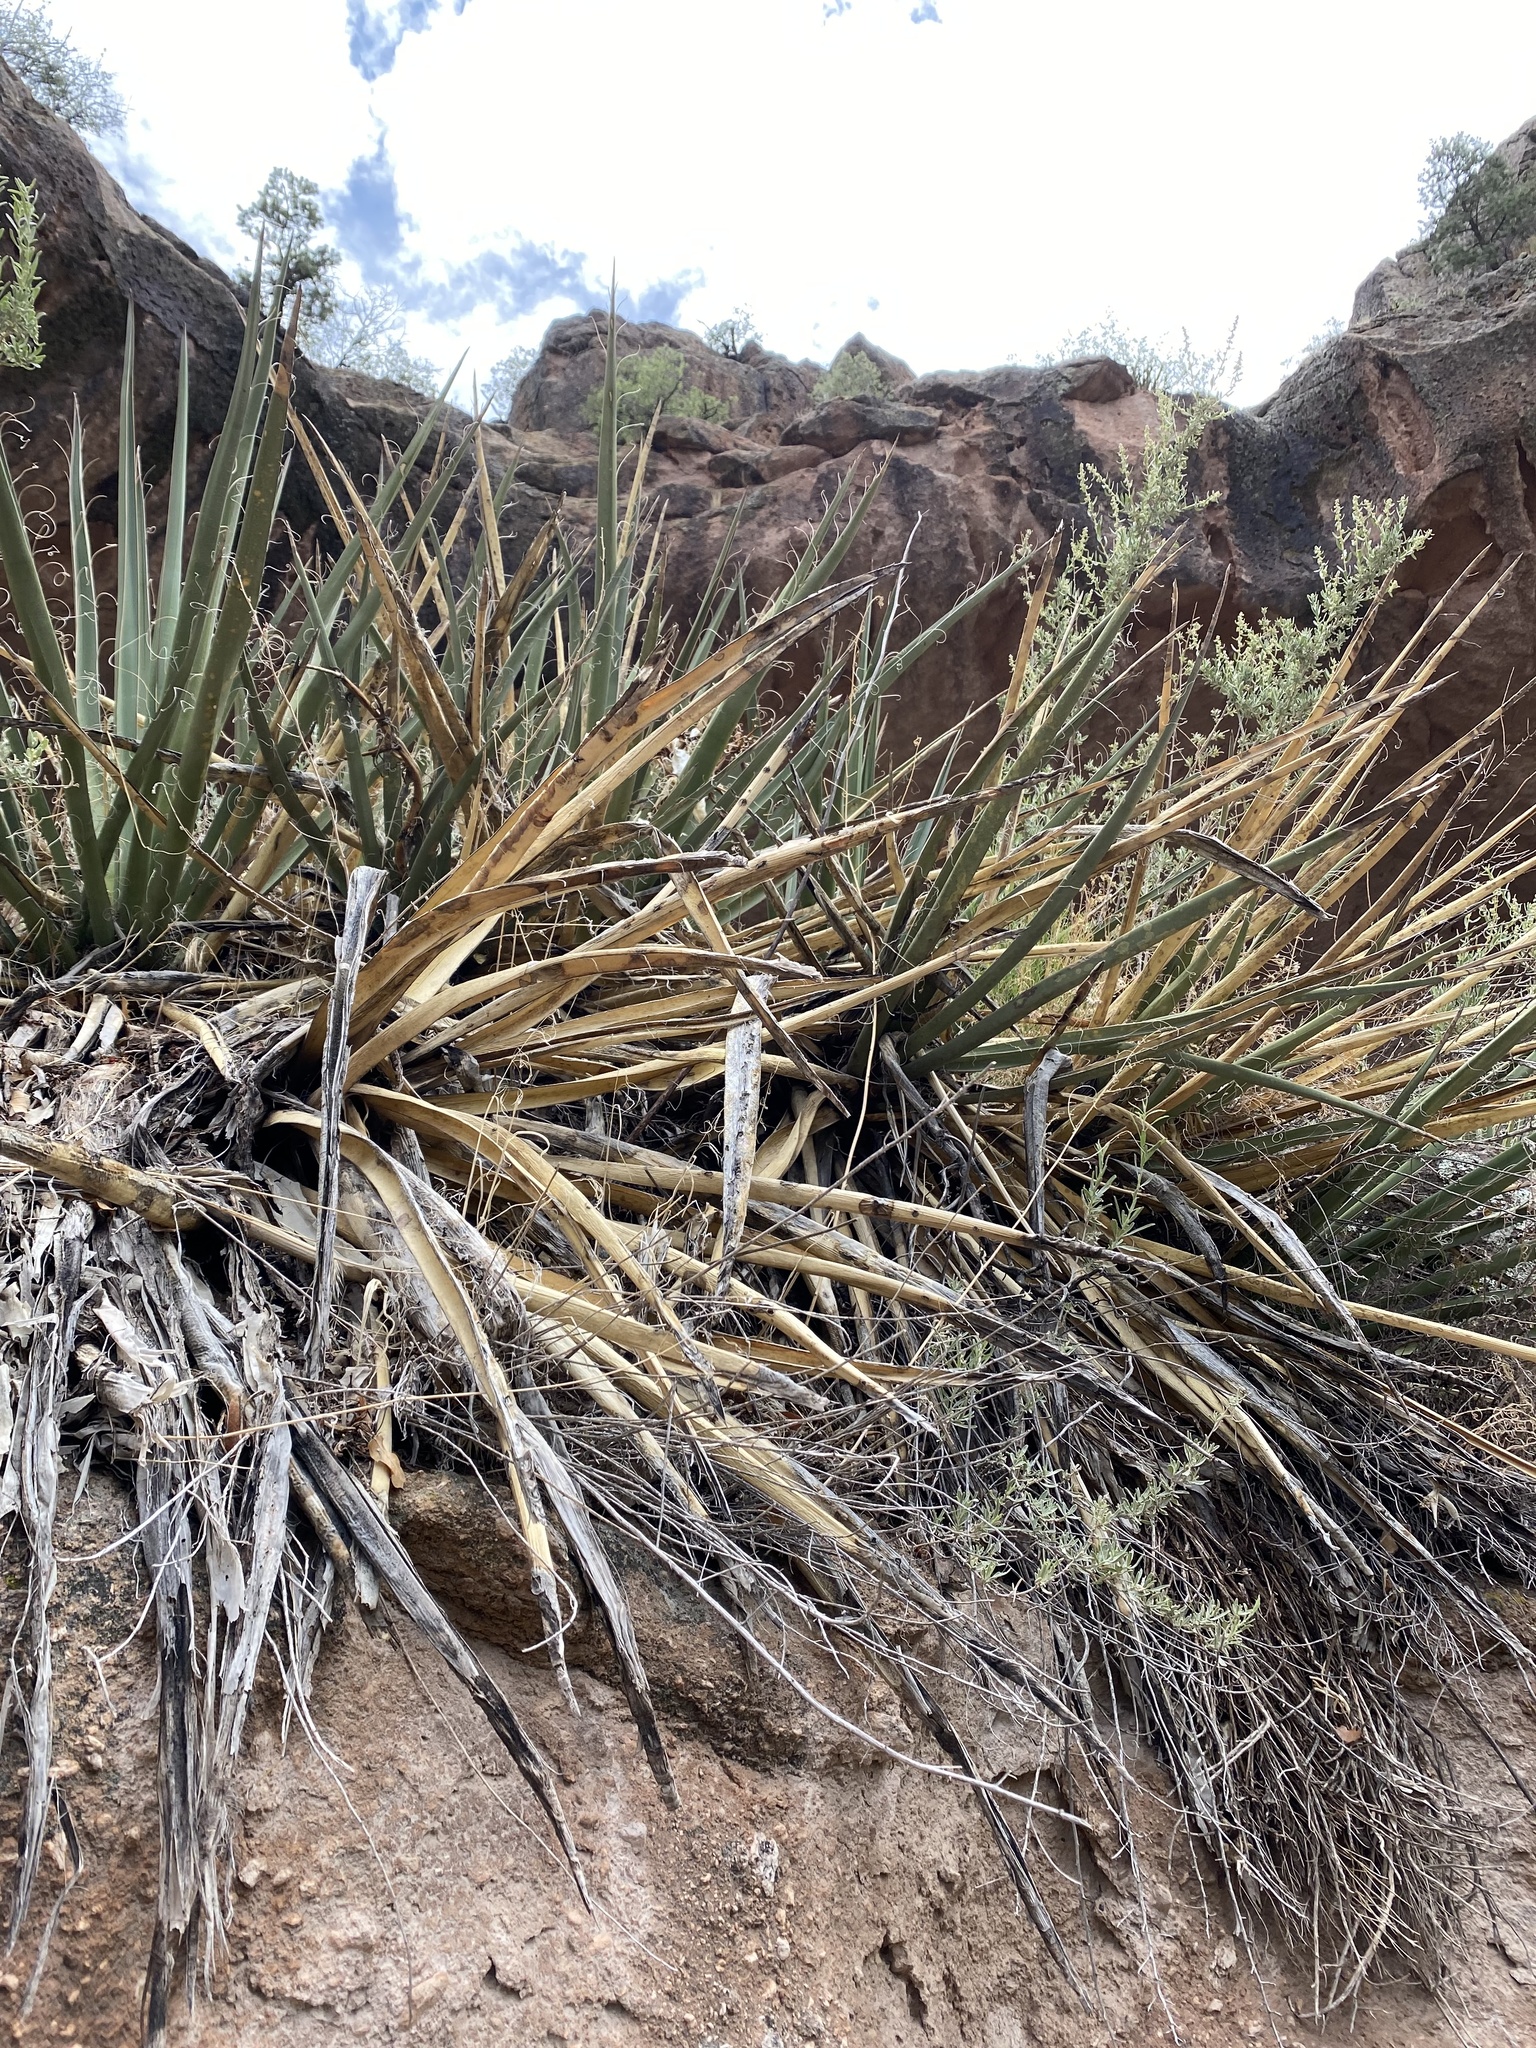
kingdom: Plantae
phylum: Tracheophyta
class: Liliopsida
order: Asparagales
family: Asparagaceae
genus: Yucca
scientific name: Yucca baccata
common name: Banana yucca
